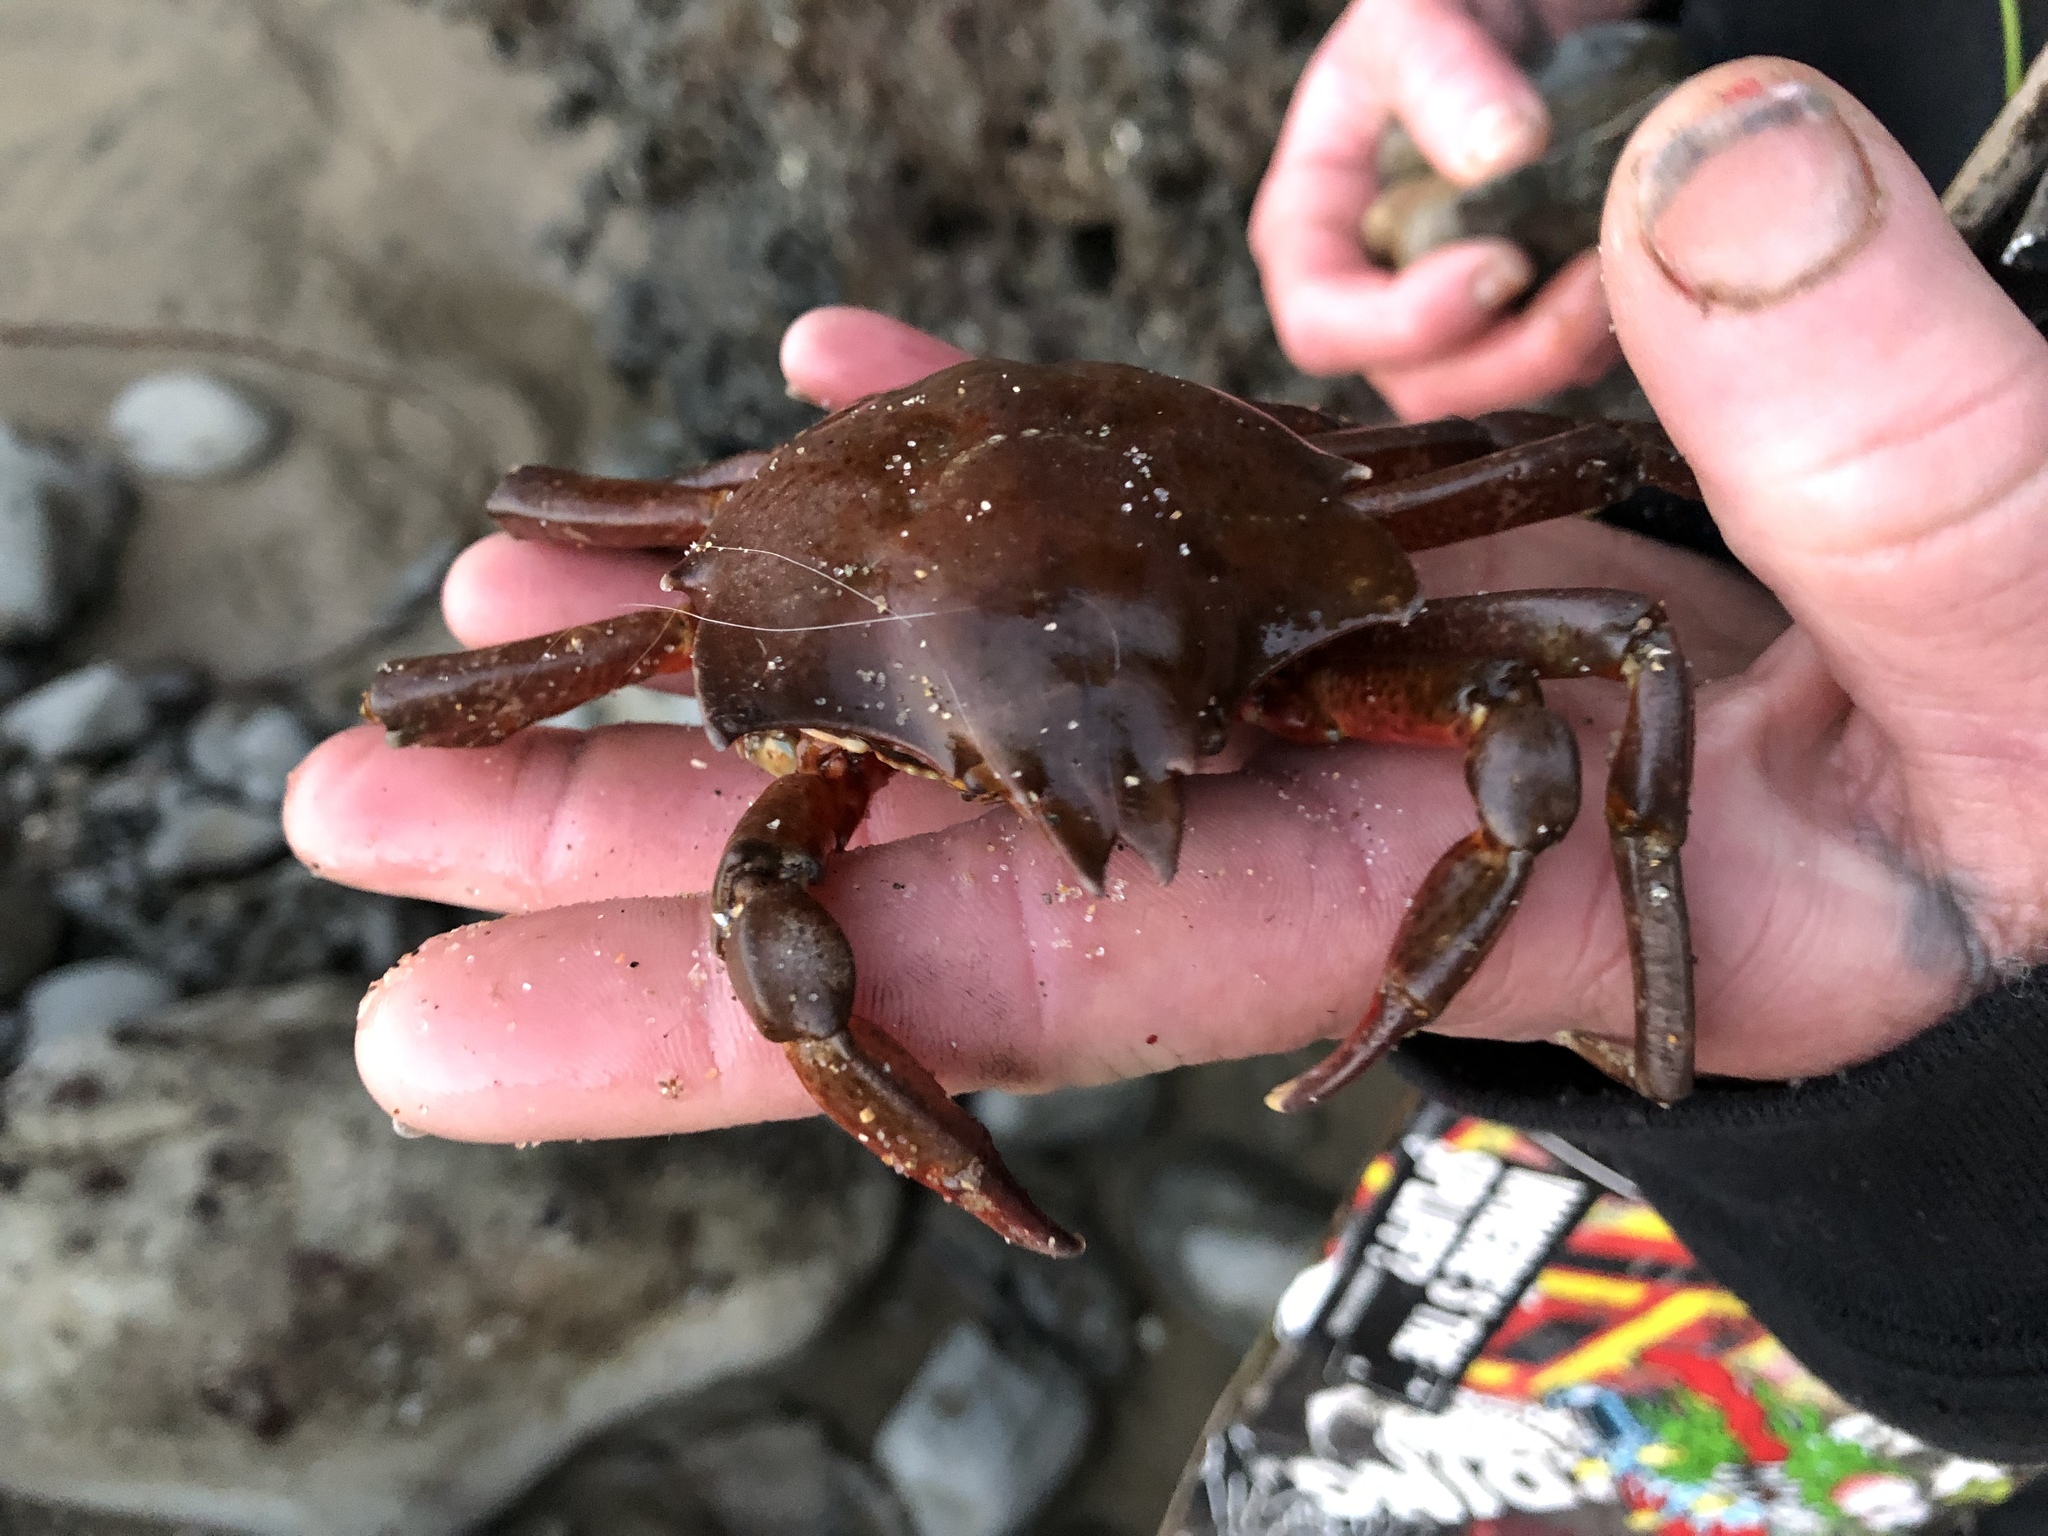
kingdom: Animalia
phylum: Arthropoda
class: Malacostraca
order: Decapoda
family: Epialtidae
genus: Pugettia
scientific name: Pugettia producta
